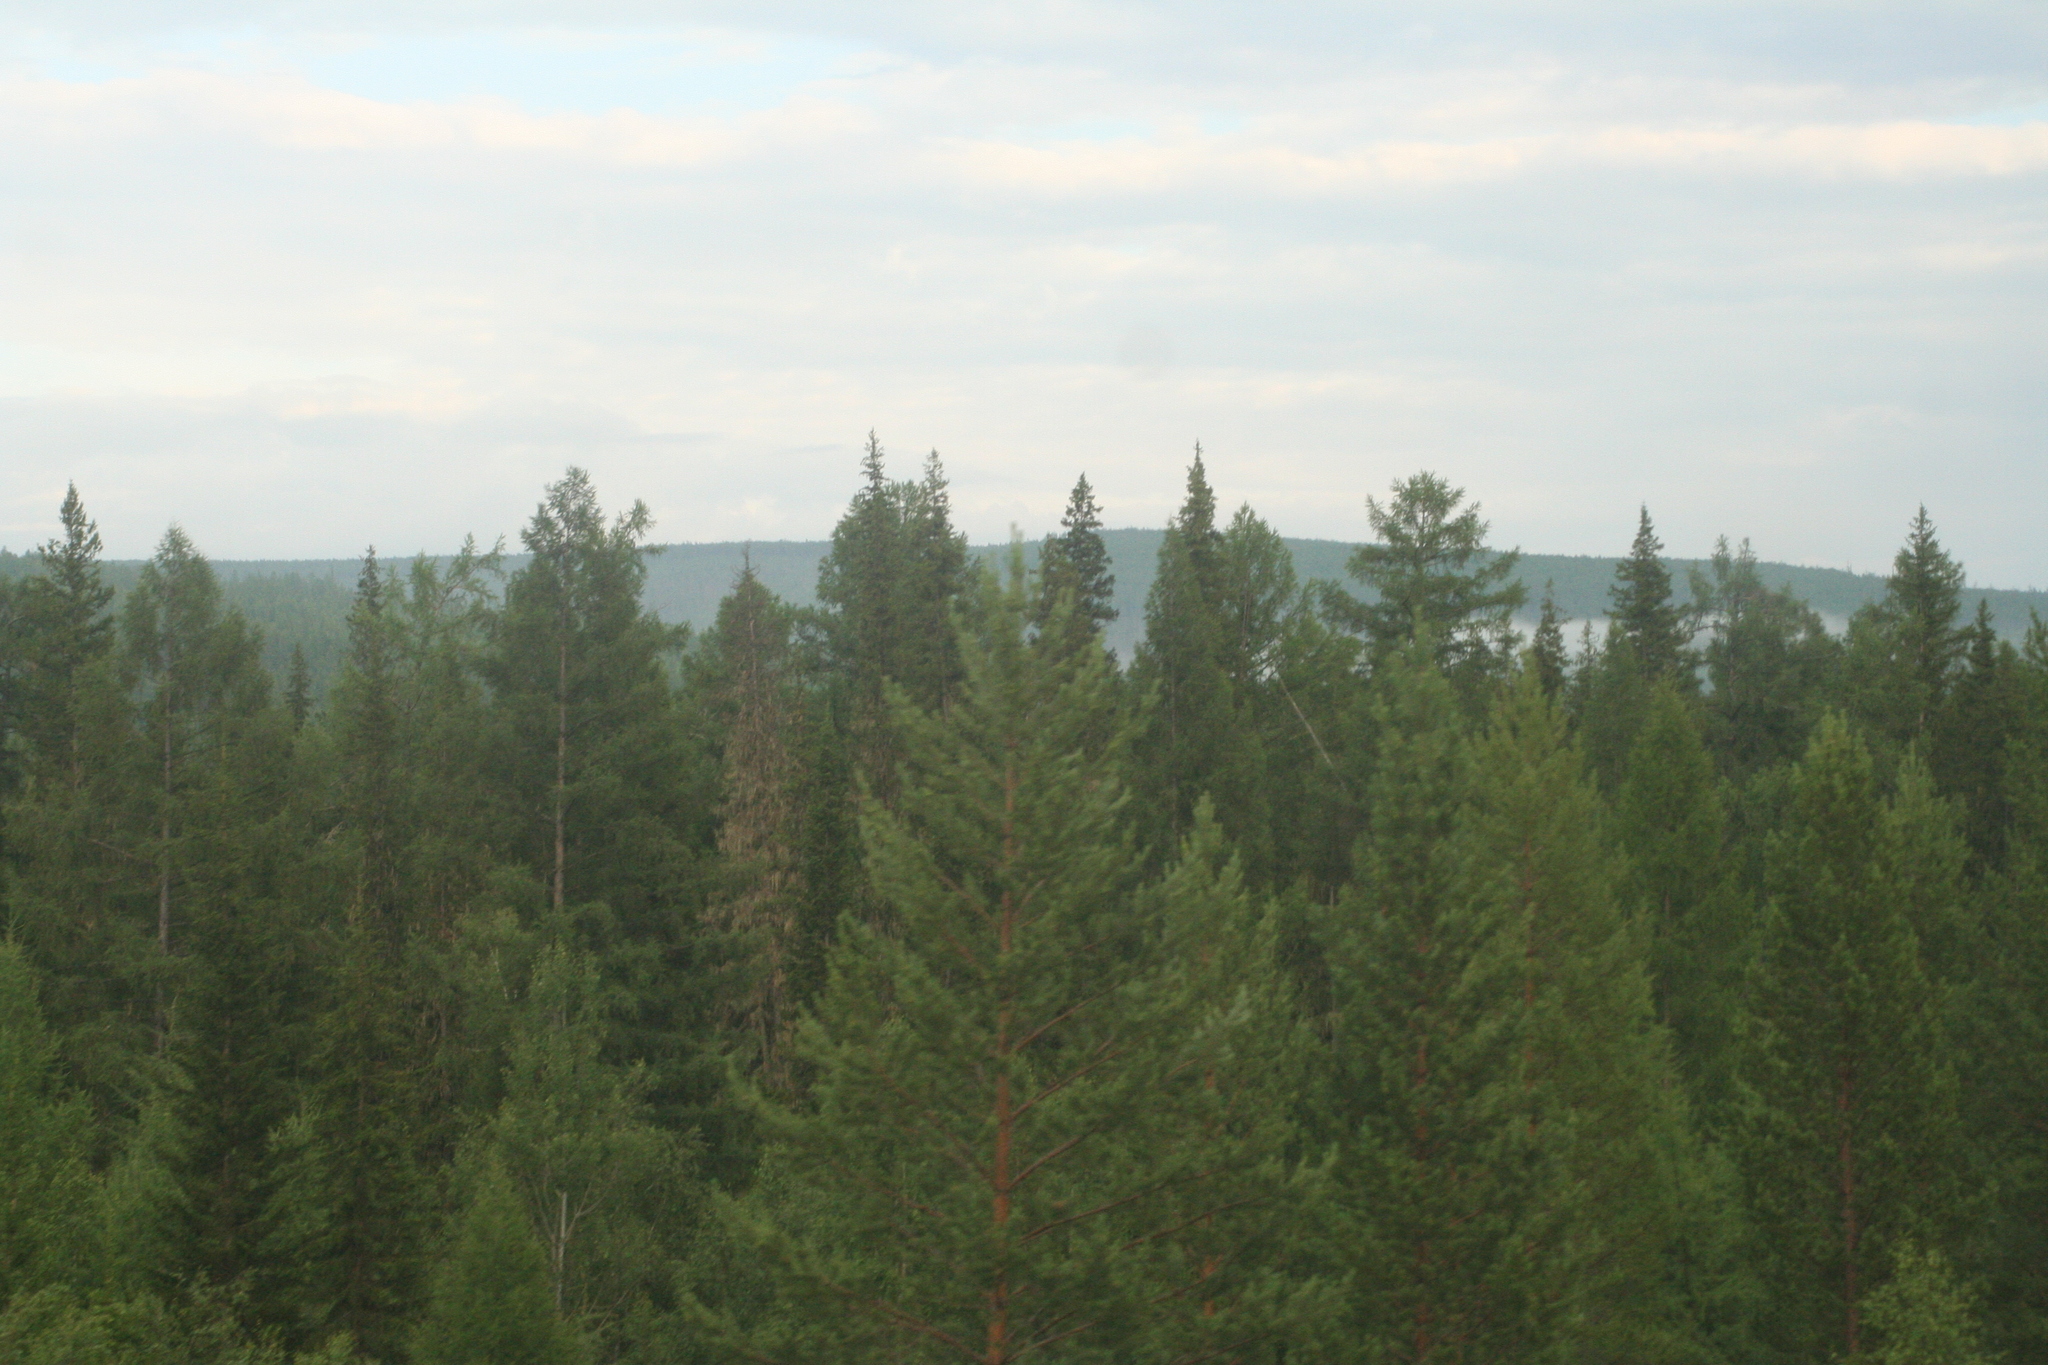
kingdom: Plantae
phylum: Tracheophyta
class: Pinopsida
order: Pinales
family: Pinaceae
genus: Pinus
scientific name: Pinus sylvestris
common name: Scots pine
